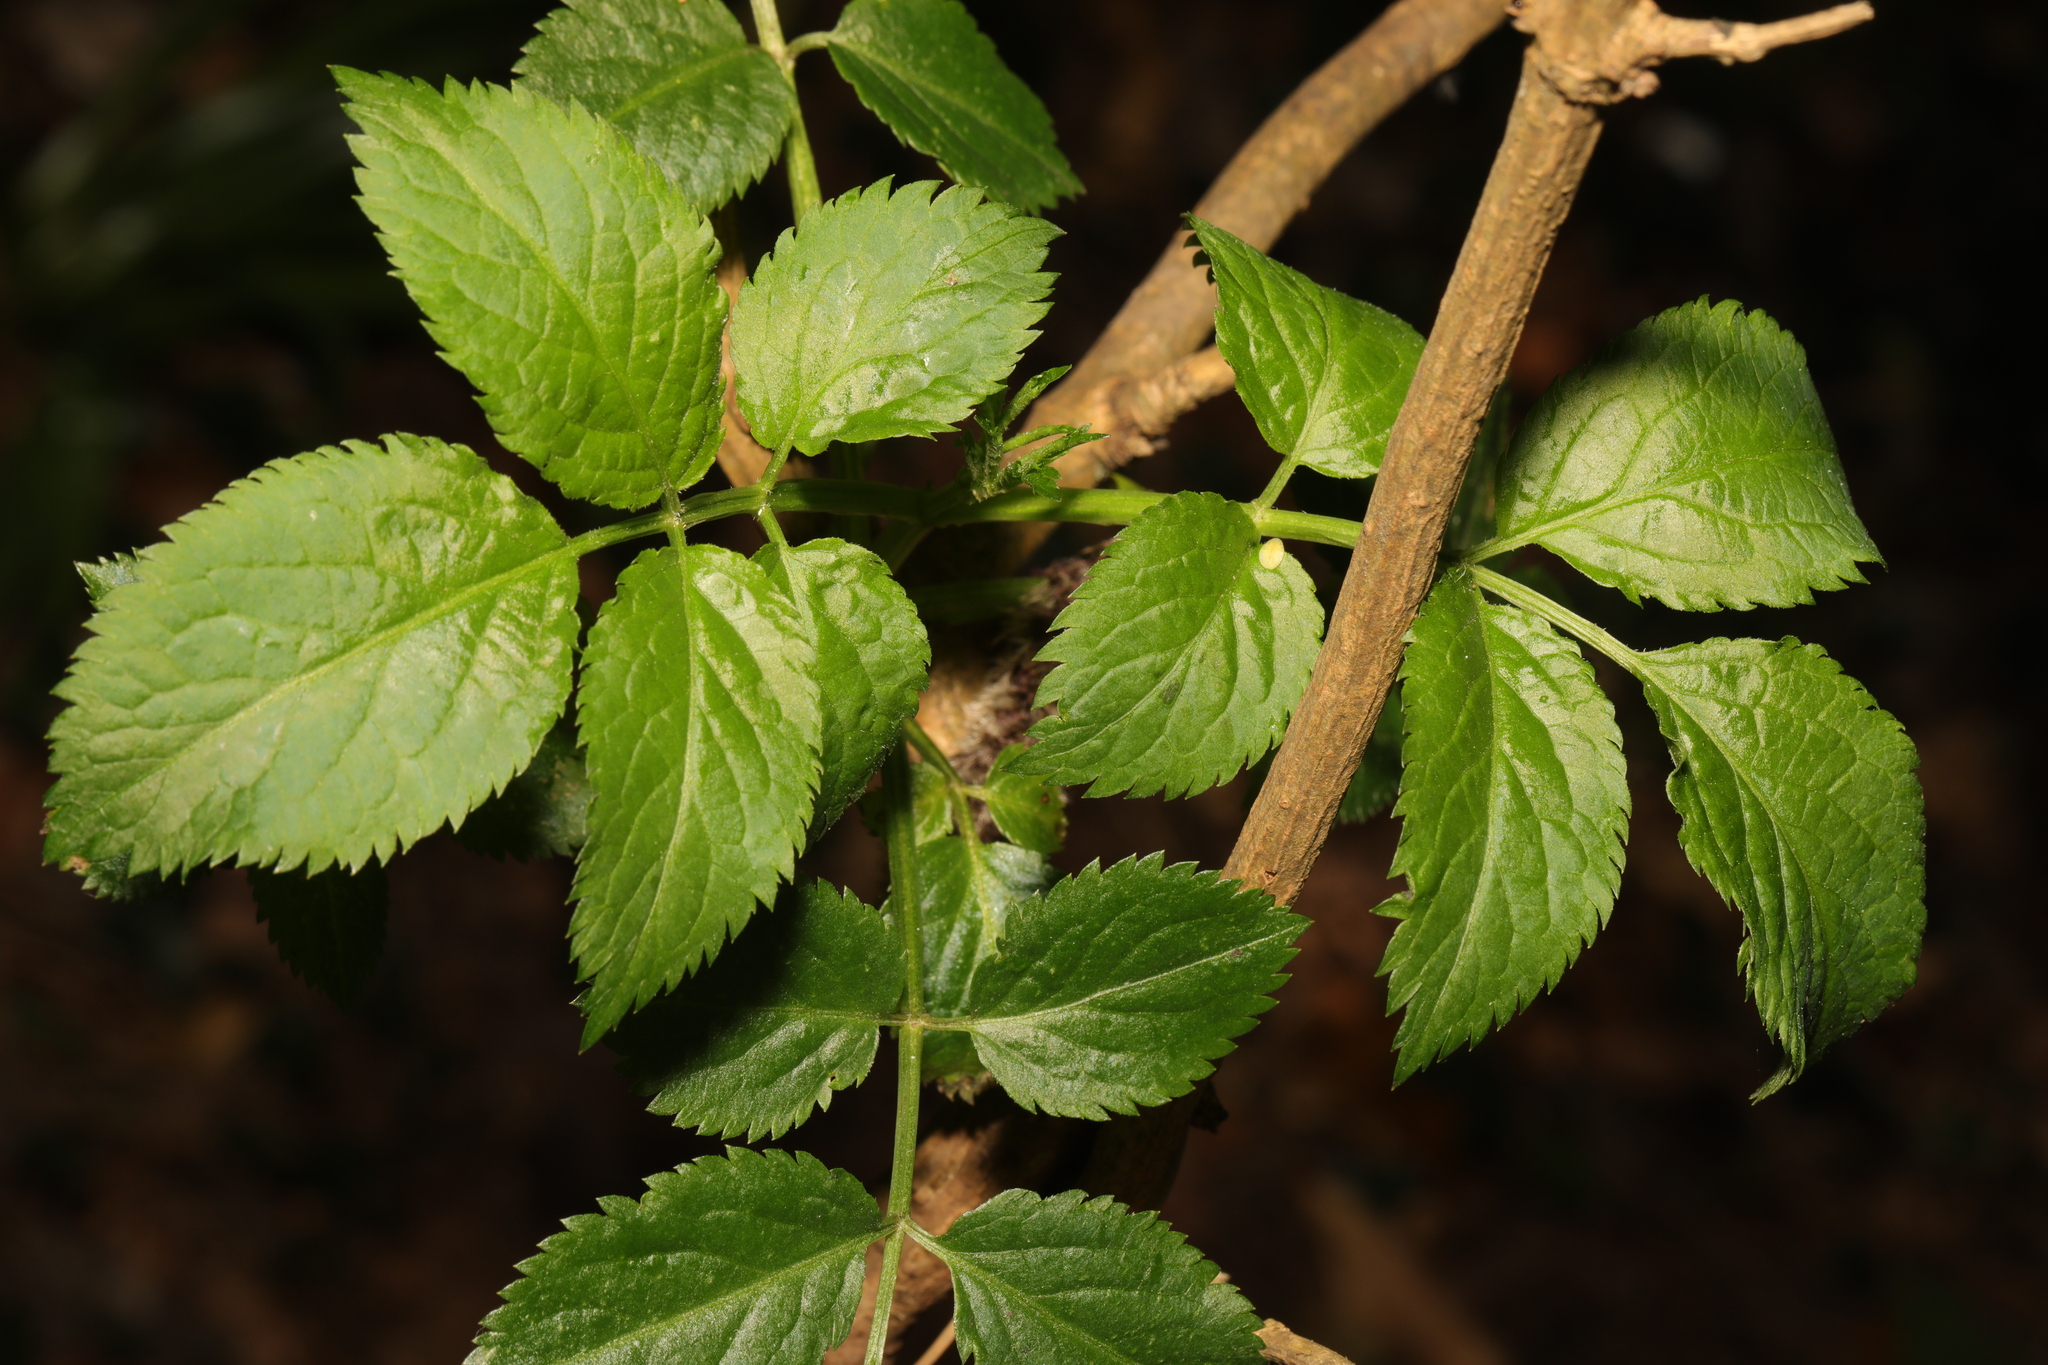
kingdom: Plantae
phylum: Tracheophyta
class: Magnoliopsida
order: Dipsacales
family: Viburnaceae
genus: Sambucus
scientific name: Sambucus nigra
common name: Elder
